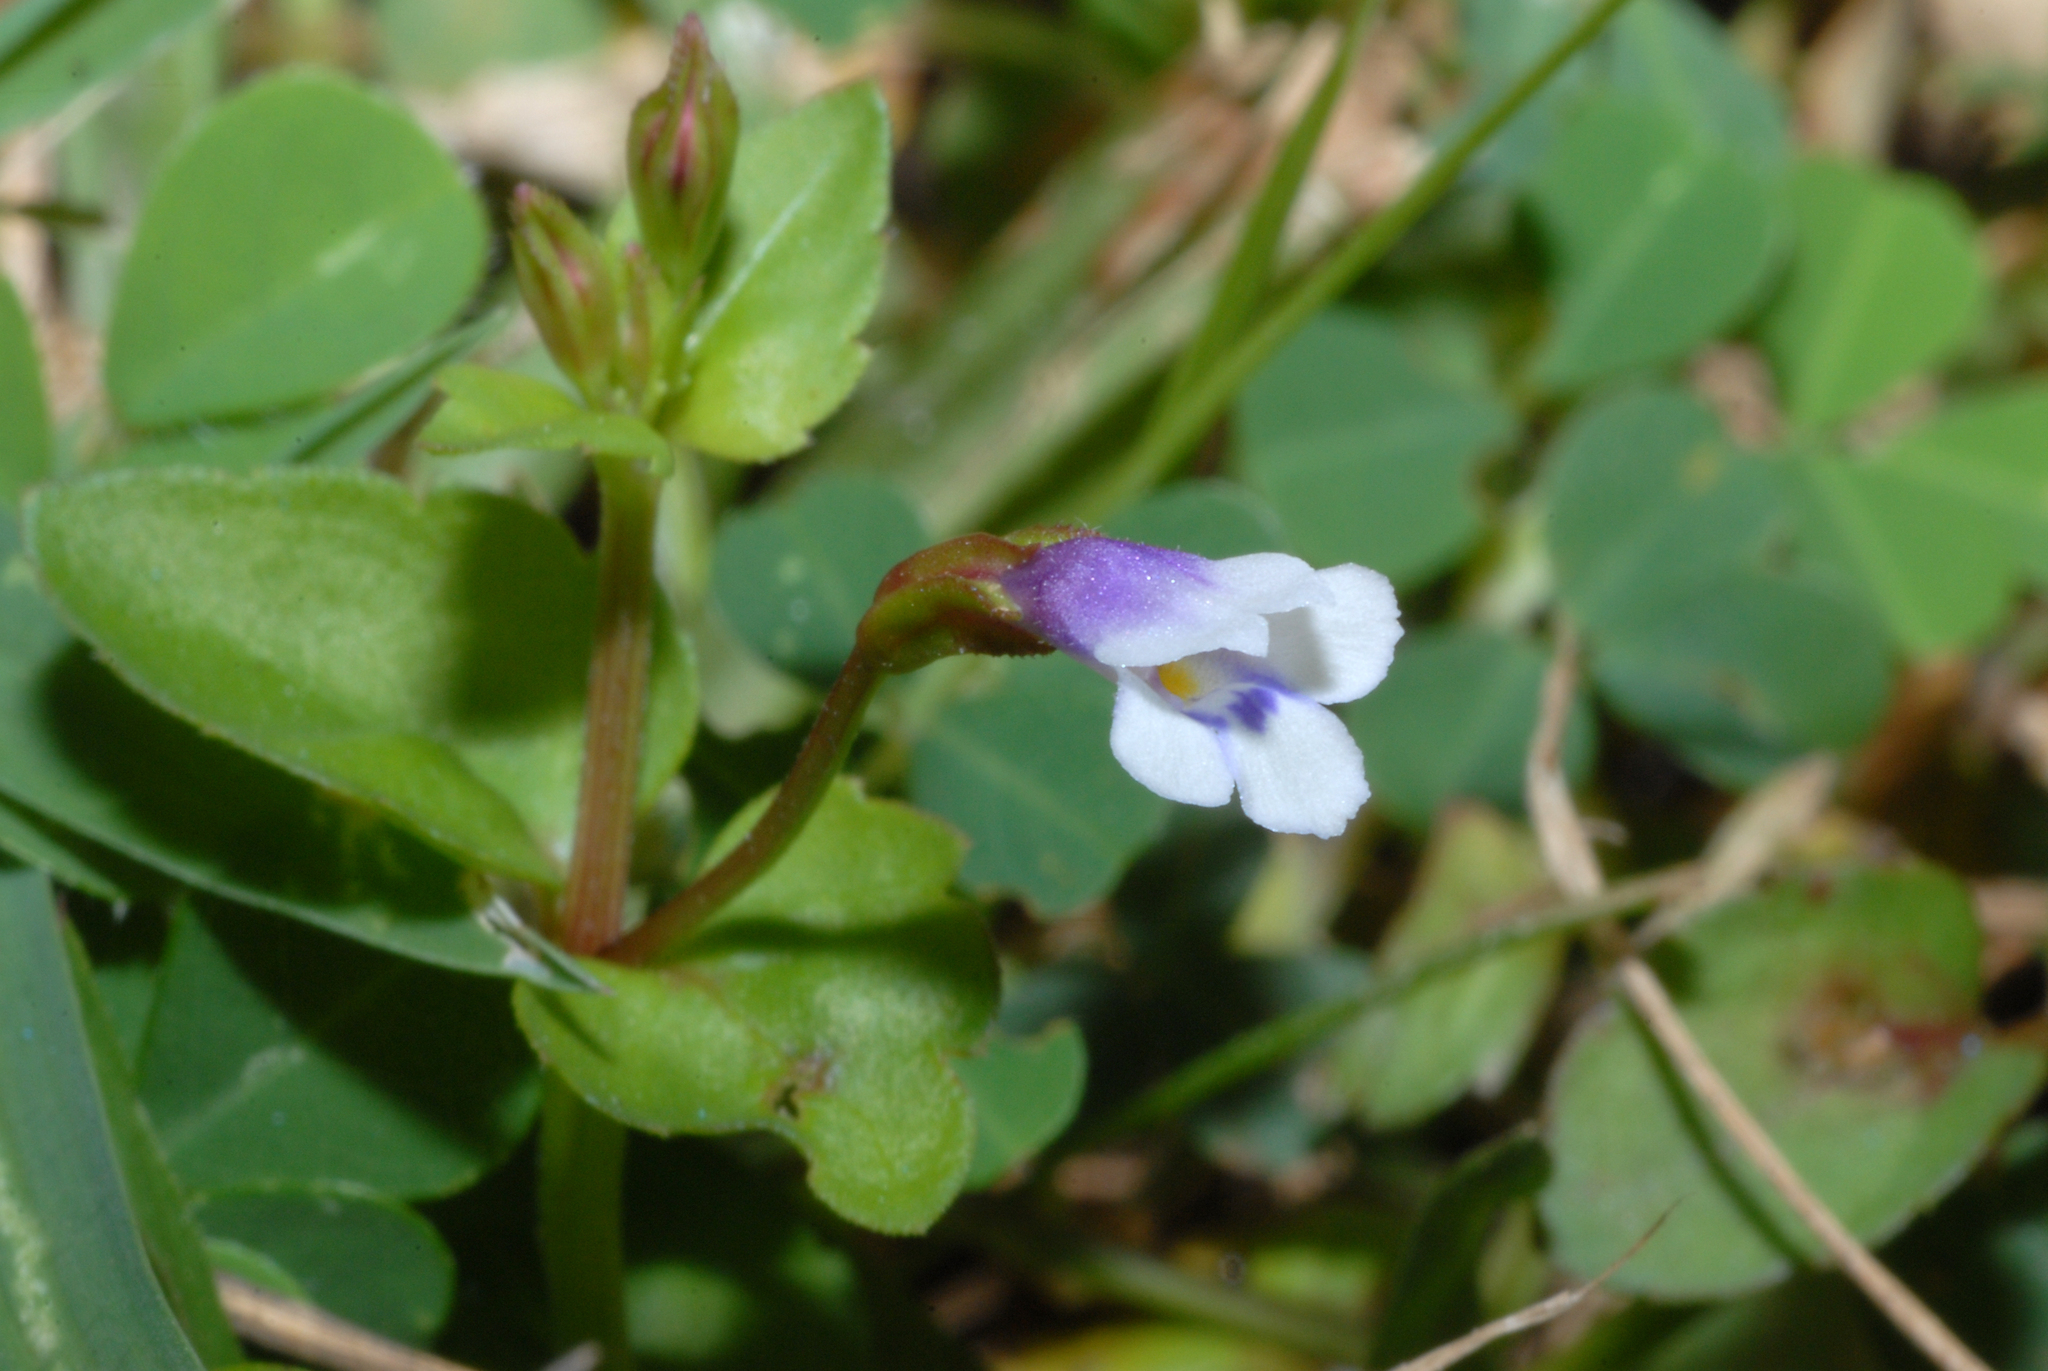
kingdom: Plantae
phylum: Tracheophyta
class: Magnoliopsida
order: Lamiales
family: Linderniaceae
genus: Torenia
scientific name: Torenia crustacea
